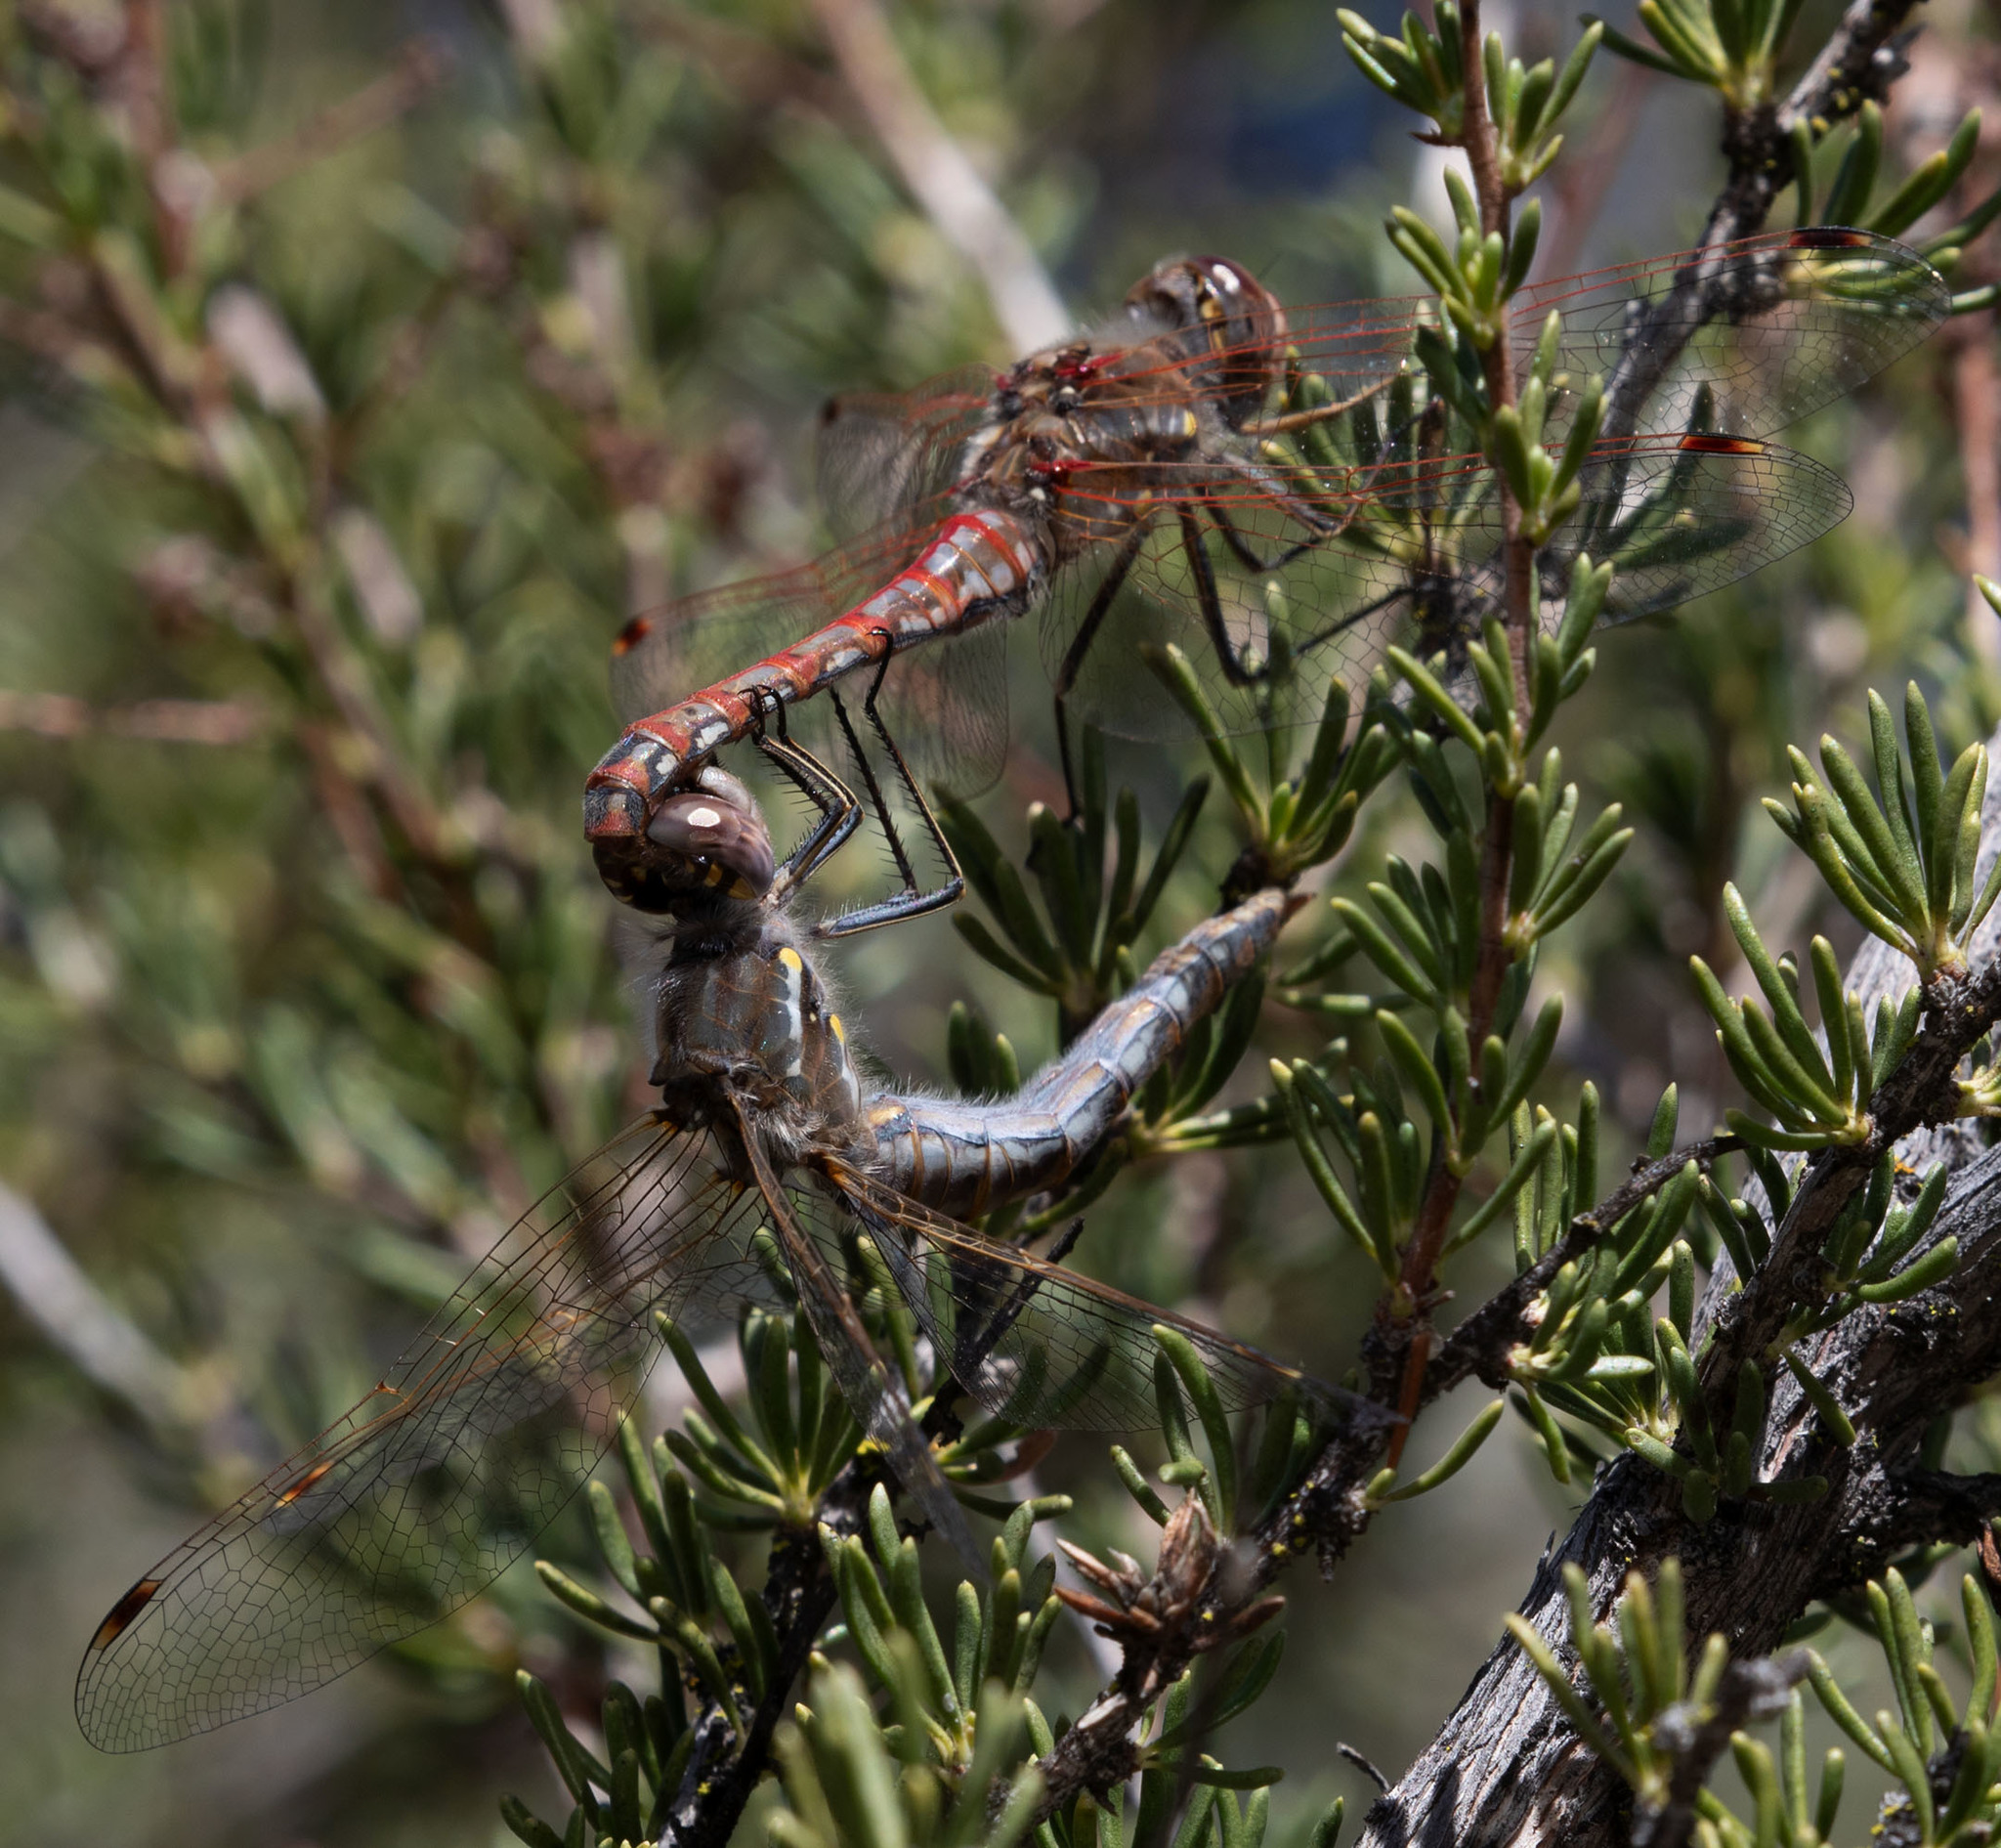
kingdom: Animalia
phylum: Arthropoda
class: Insecta
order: Odonata
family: Libellulidae
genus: Sympetrum
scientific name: Sympetrum corruptum
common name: Variegated meadowhawk
